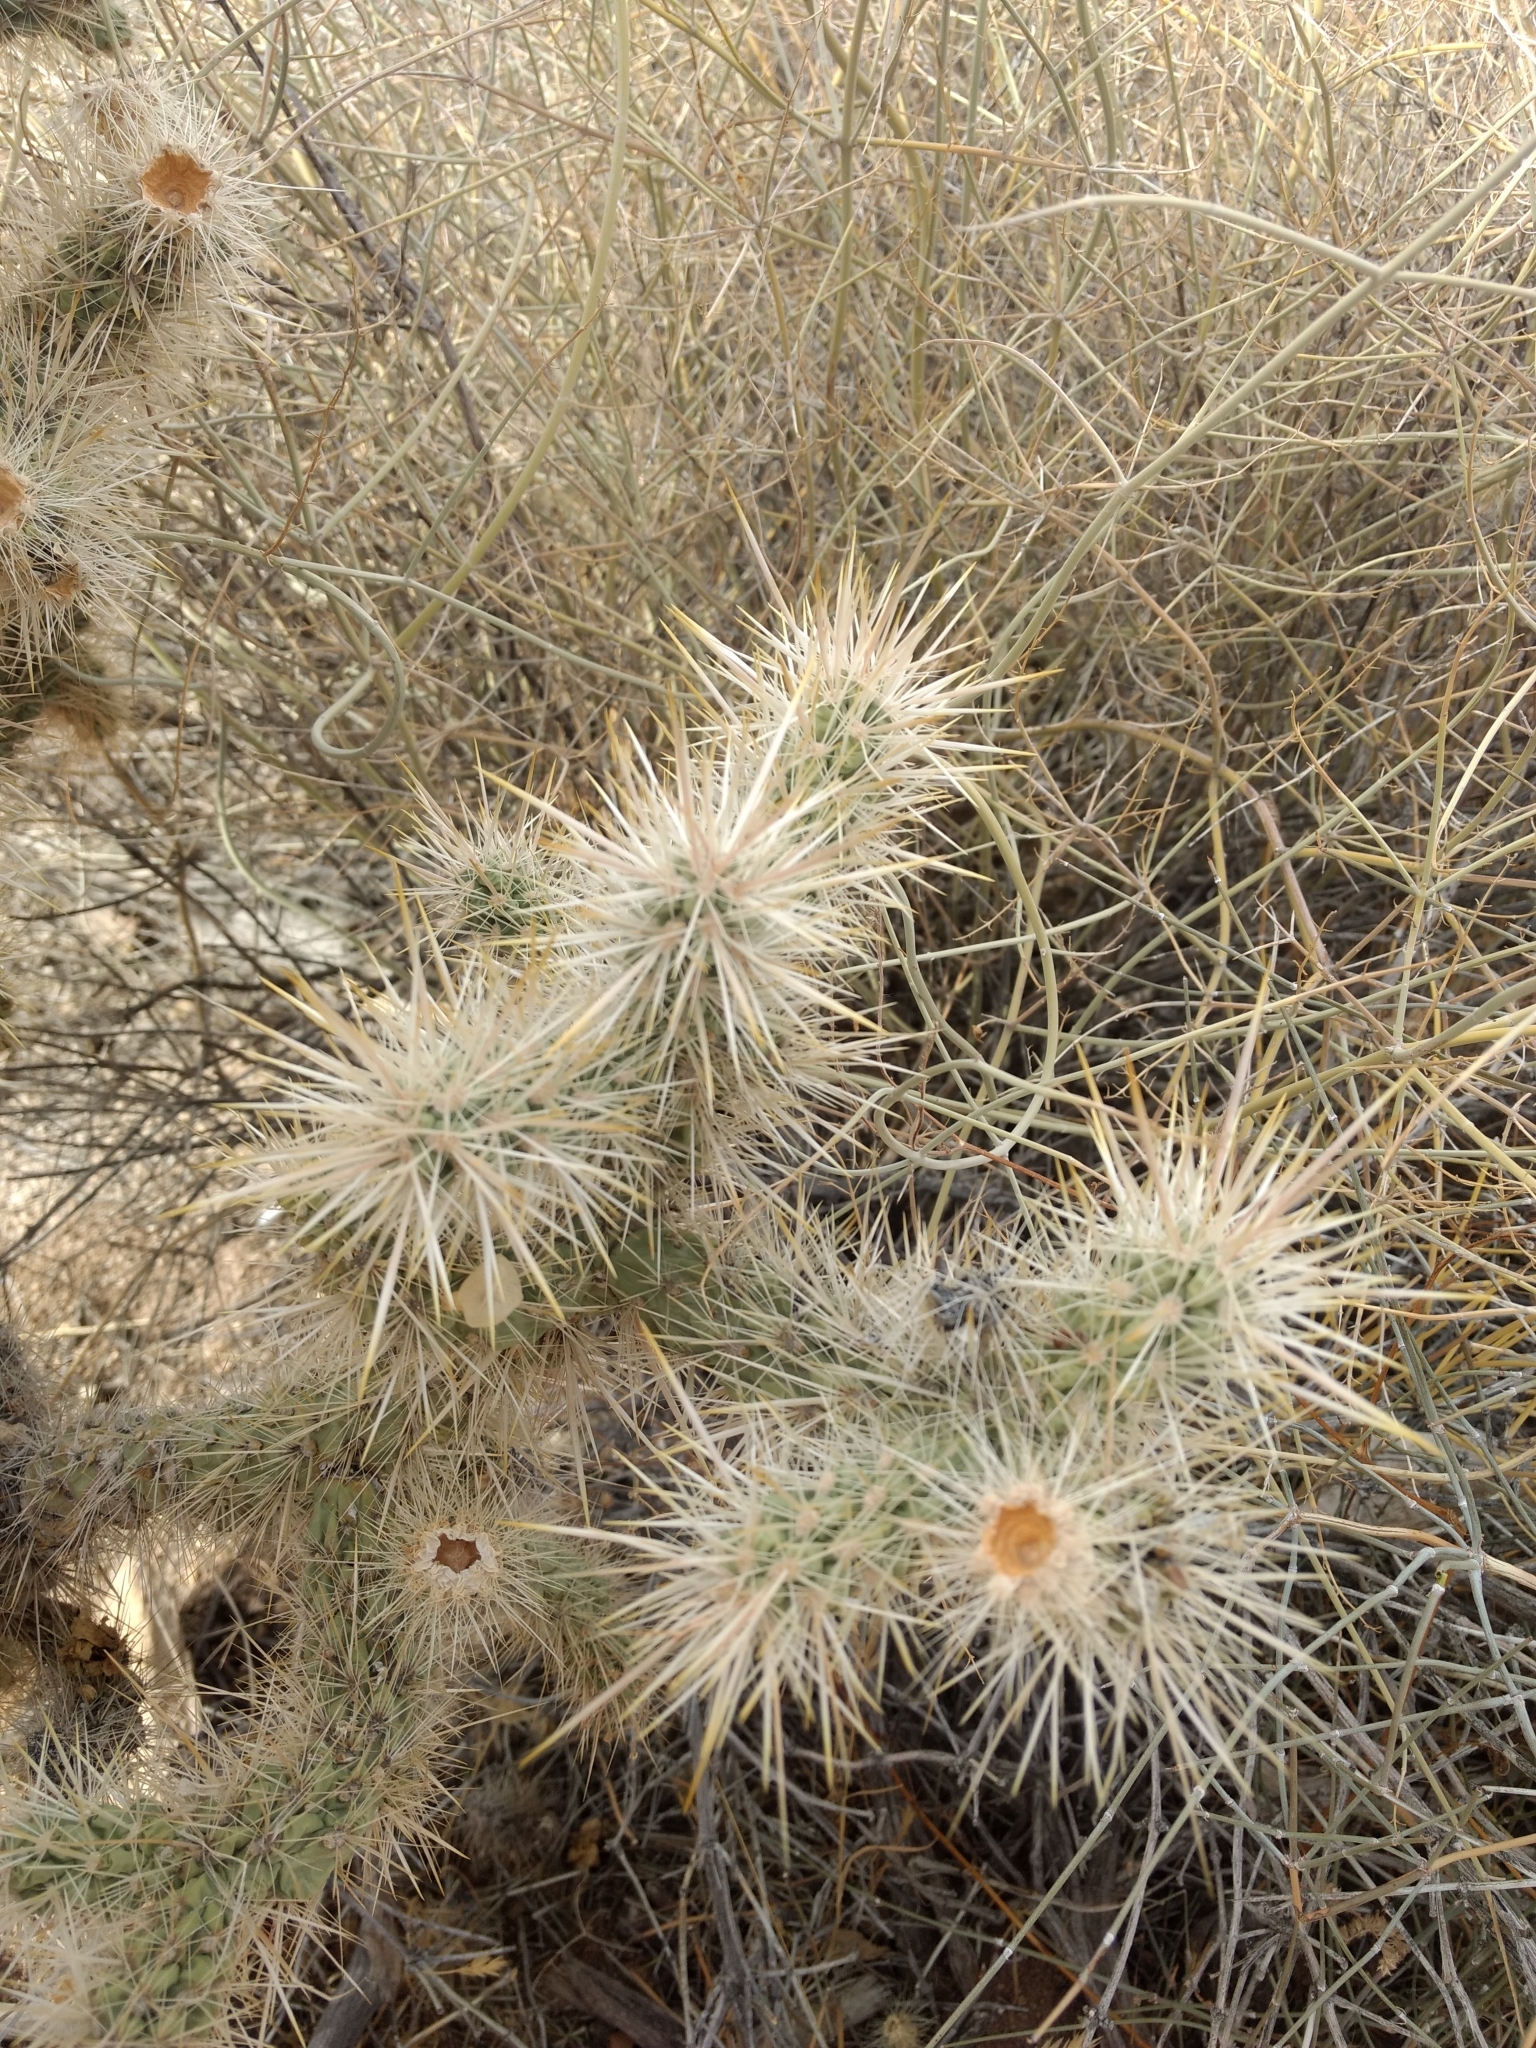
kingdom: Plantae
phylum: Tracheophyta
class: Magnoliopsida
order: Caryophyllales
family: Cactaceae
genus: Cylindropuntia
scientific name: Cylindropuntia echinocarpa
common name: Ground cholla
